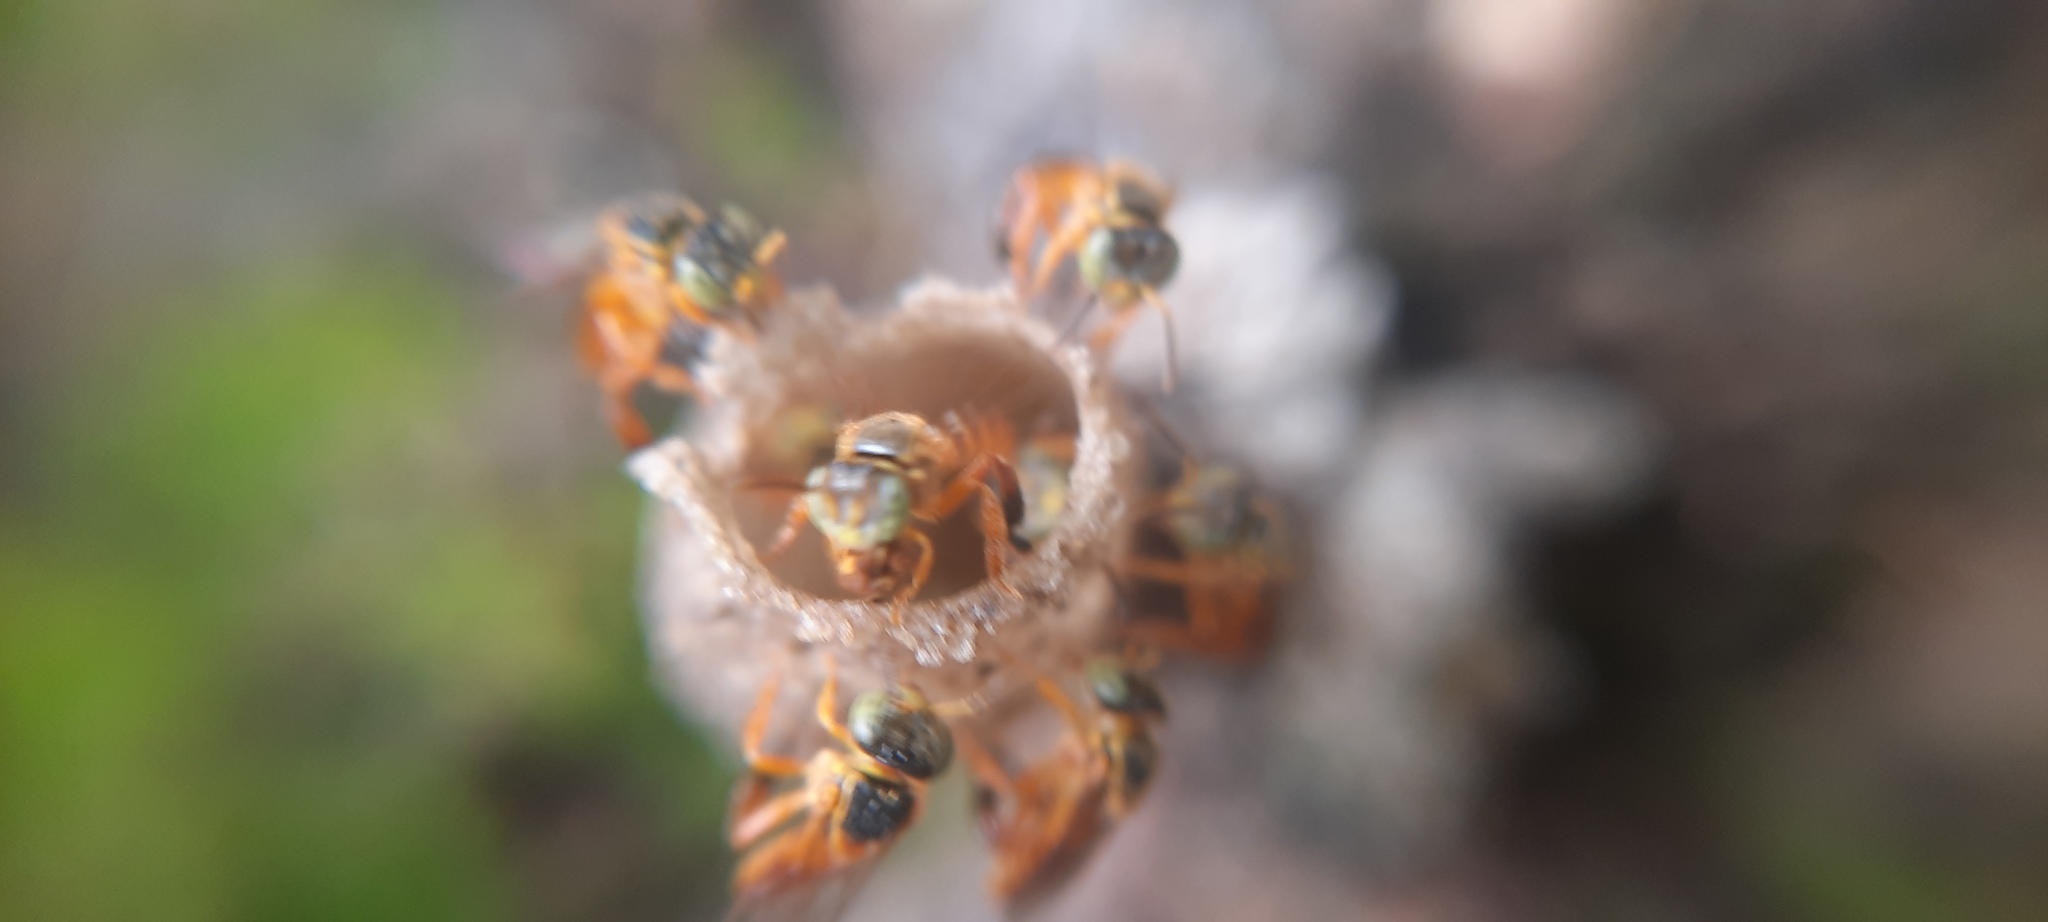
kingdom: Animalia
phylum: Arthropoda
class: Insecta
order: Hymenoptera
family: Apidae
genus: Tetragonisca
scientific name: Tetragonisca angustula
